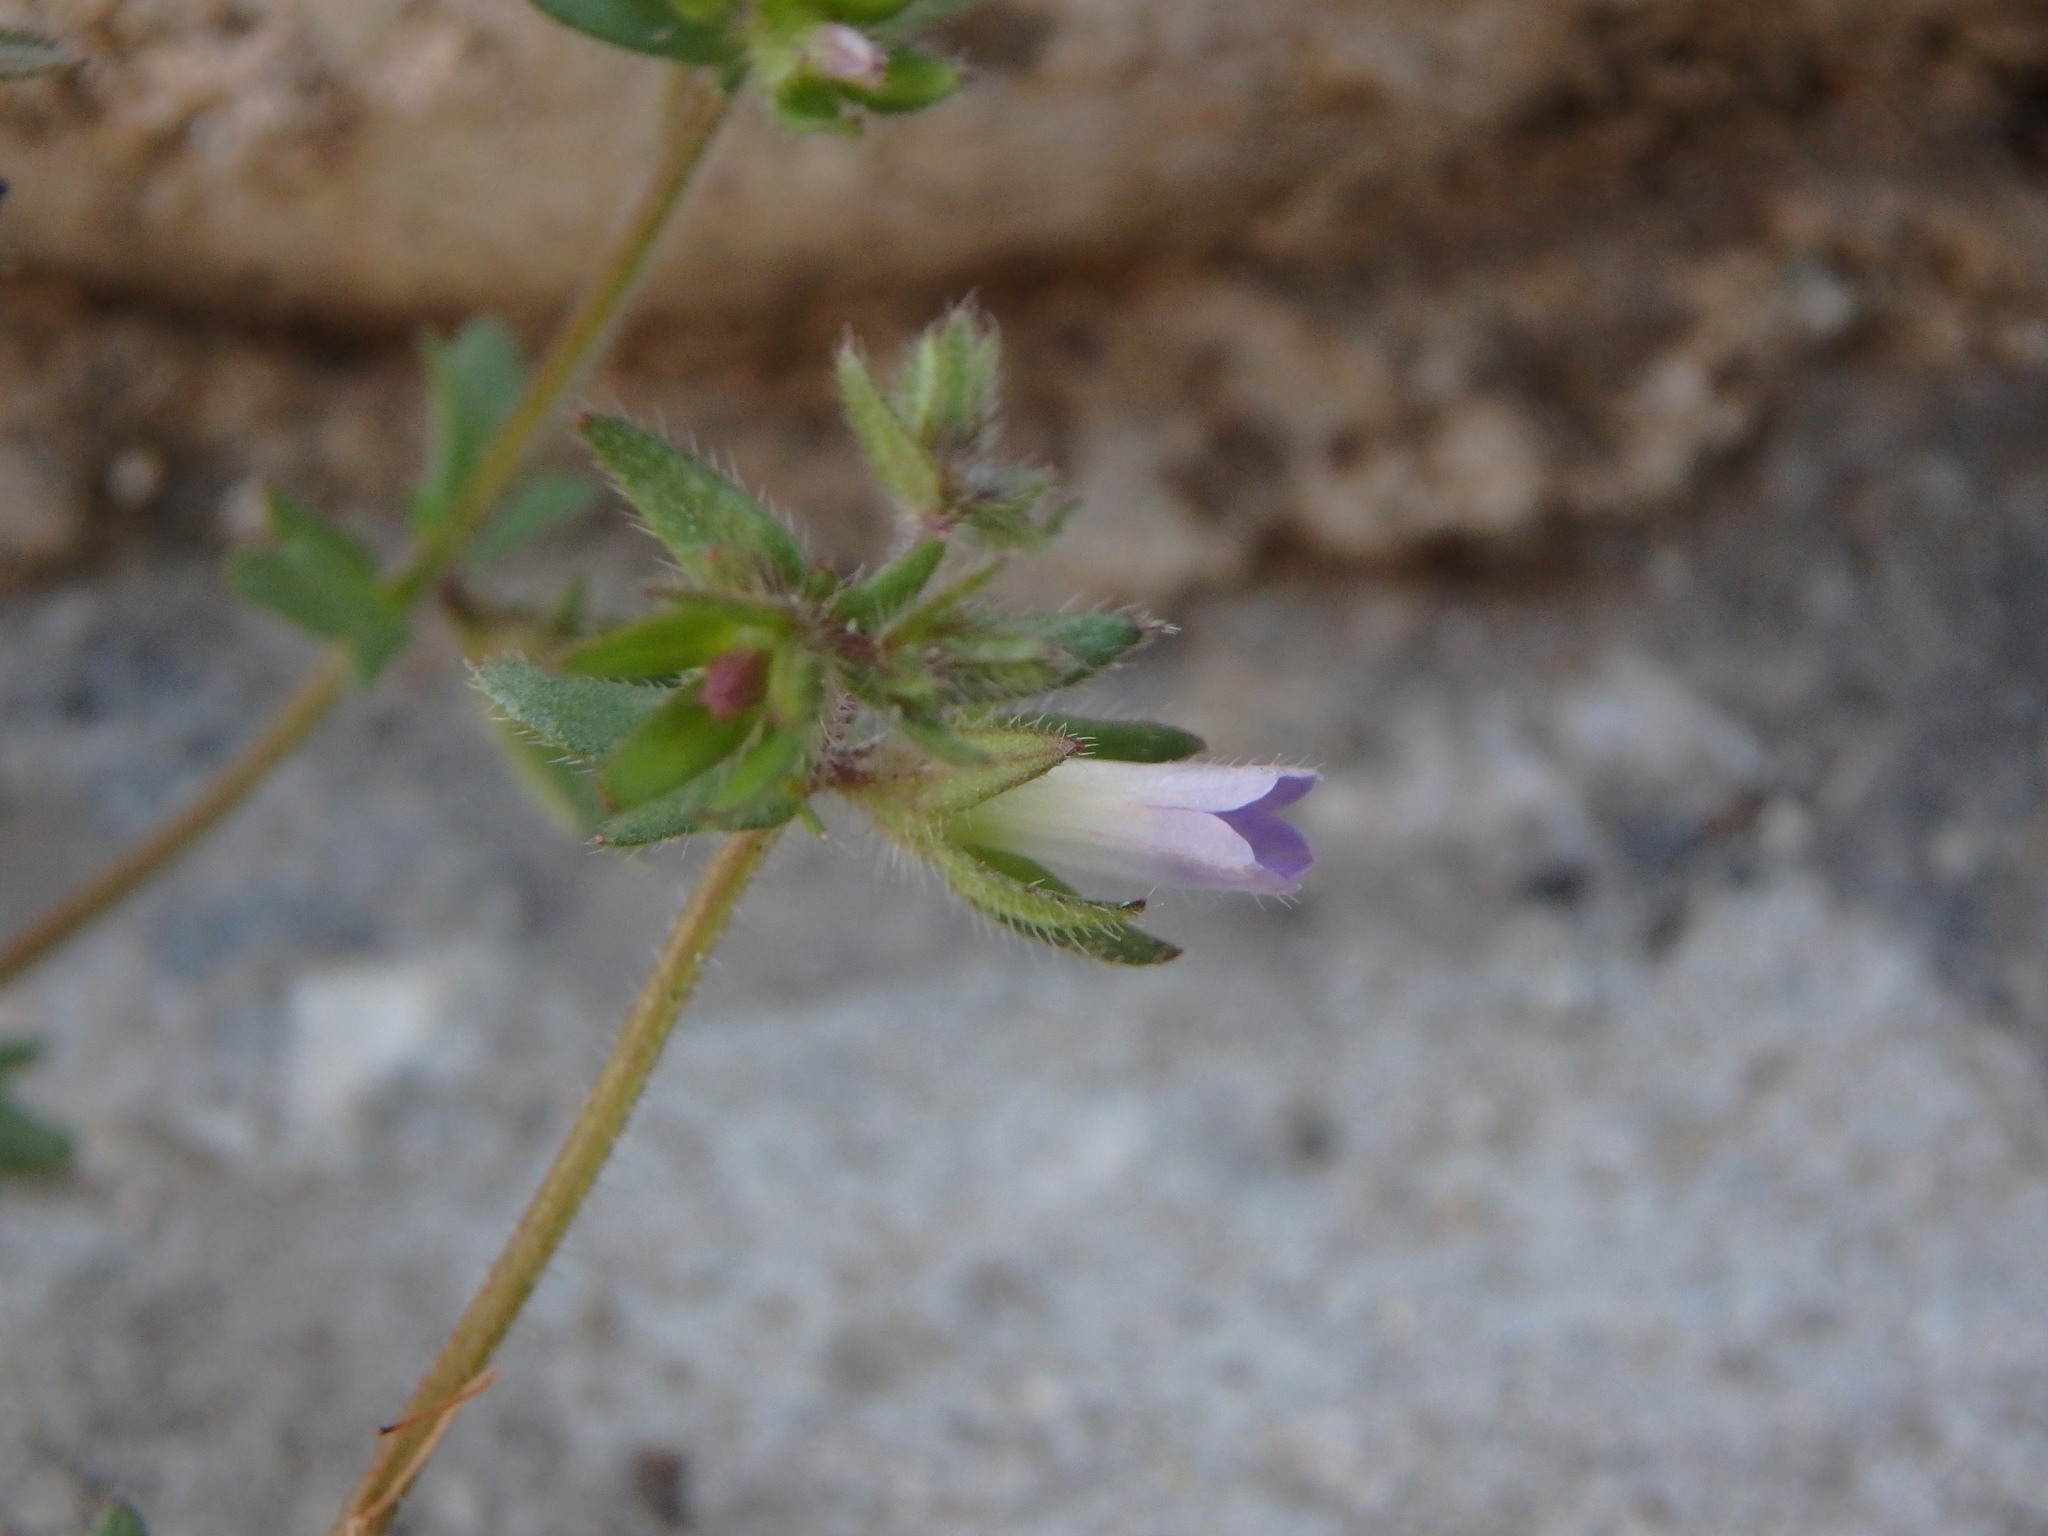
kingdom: Plantae
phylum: Tracheophyta
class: Magnoliopsida
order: Asterales
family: Campanulaceae
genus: Campanula
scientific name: Campanula erinus
